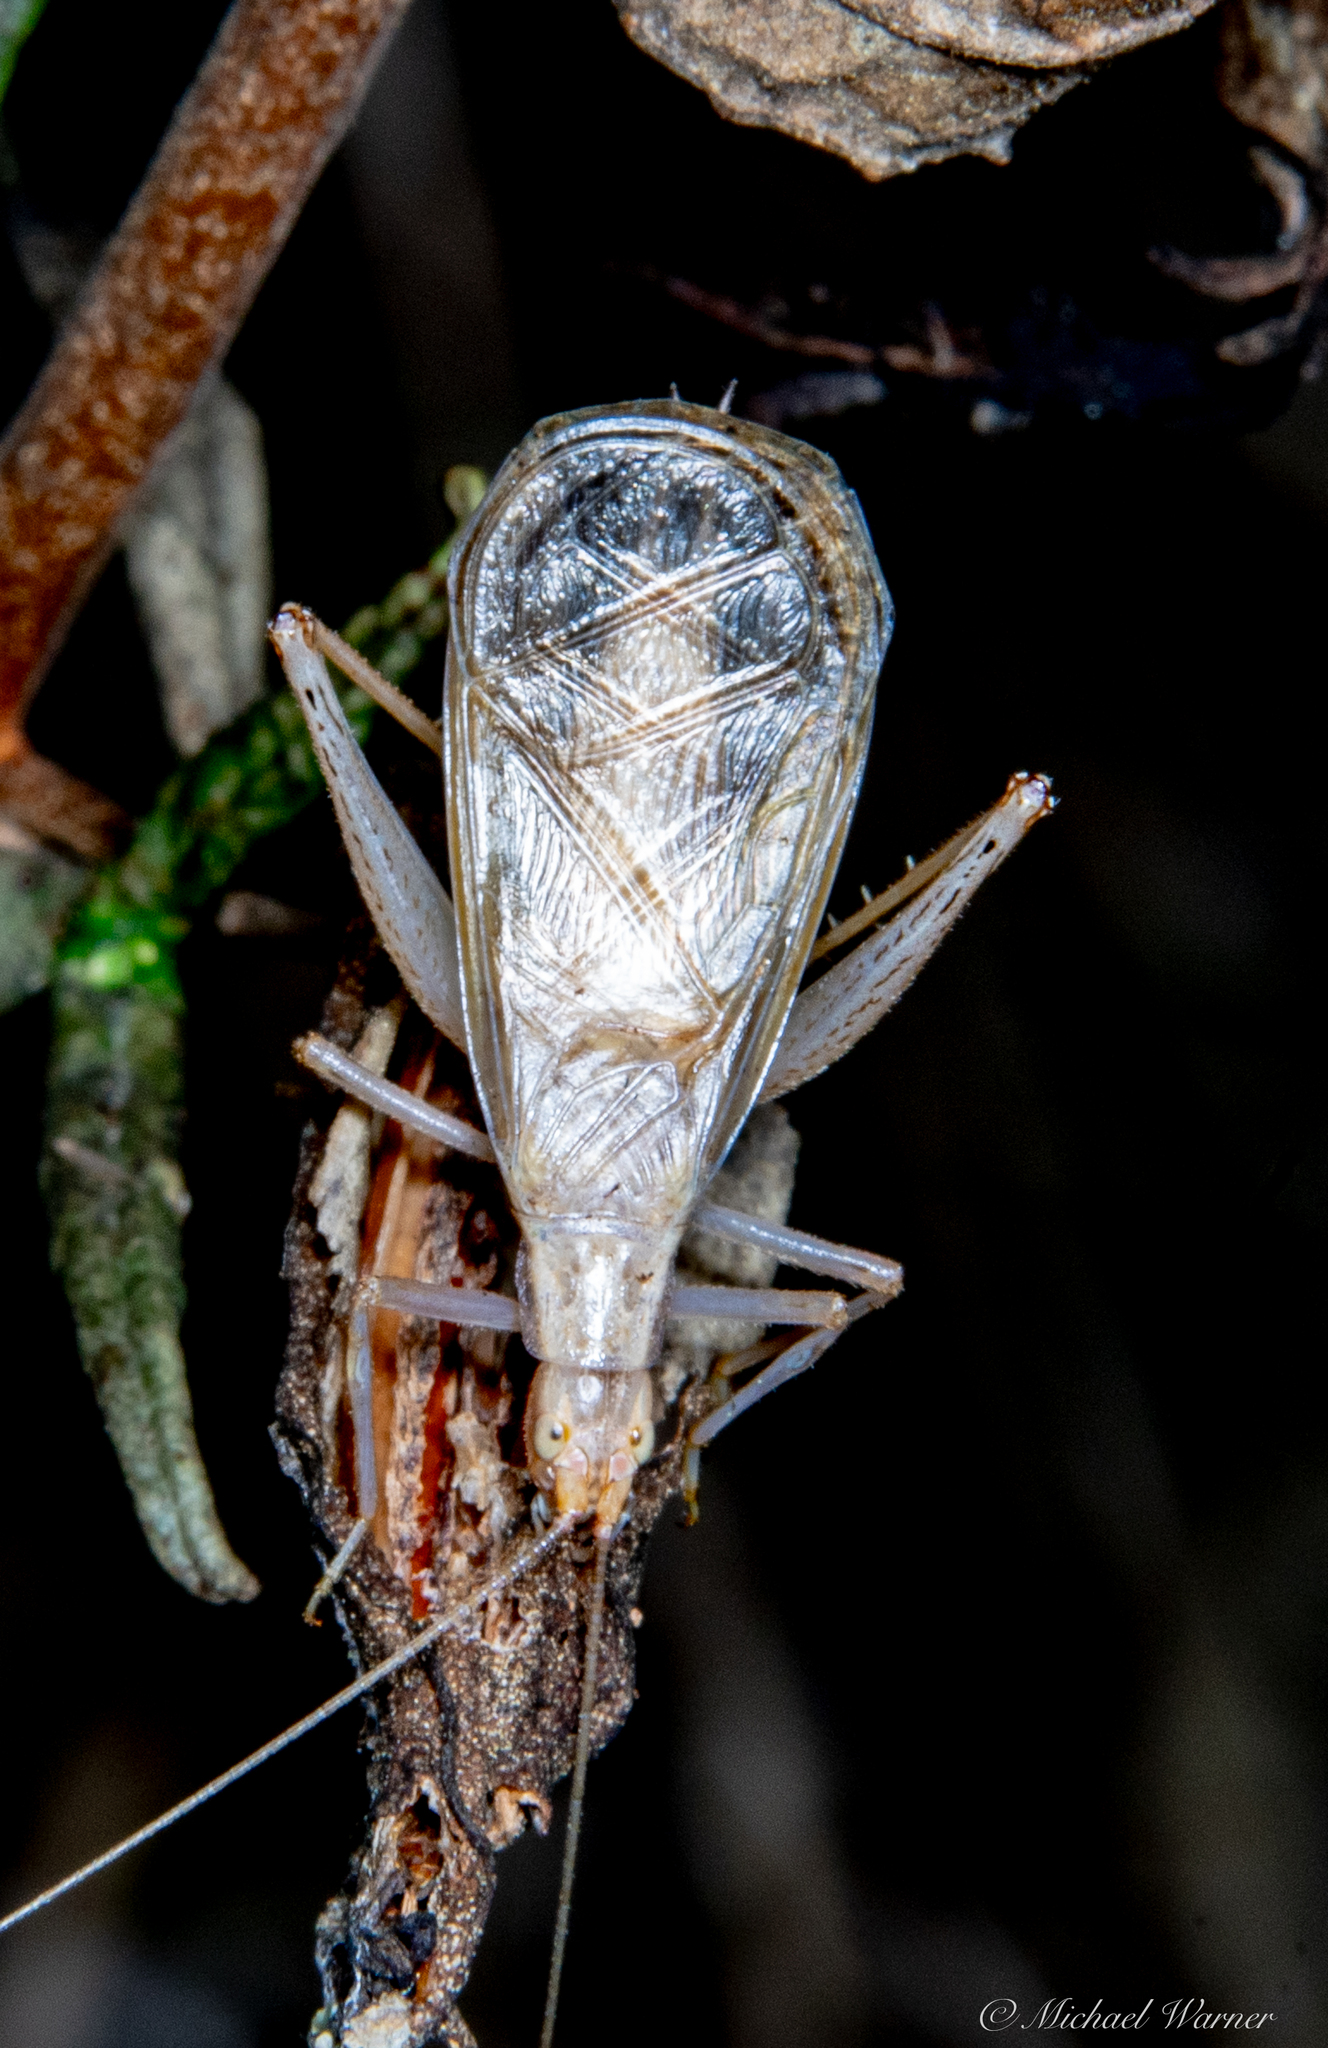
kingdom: Animalia
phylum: Arthropoda
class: Insecta
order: Orthoptera
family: Gryllidae
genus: Oecanthus
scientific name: Oecanthus californicus
